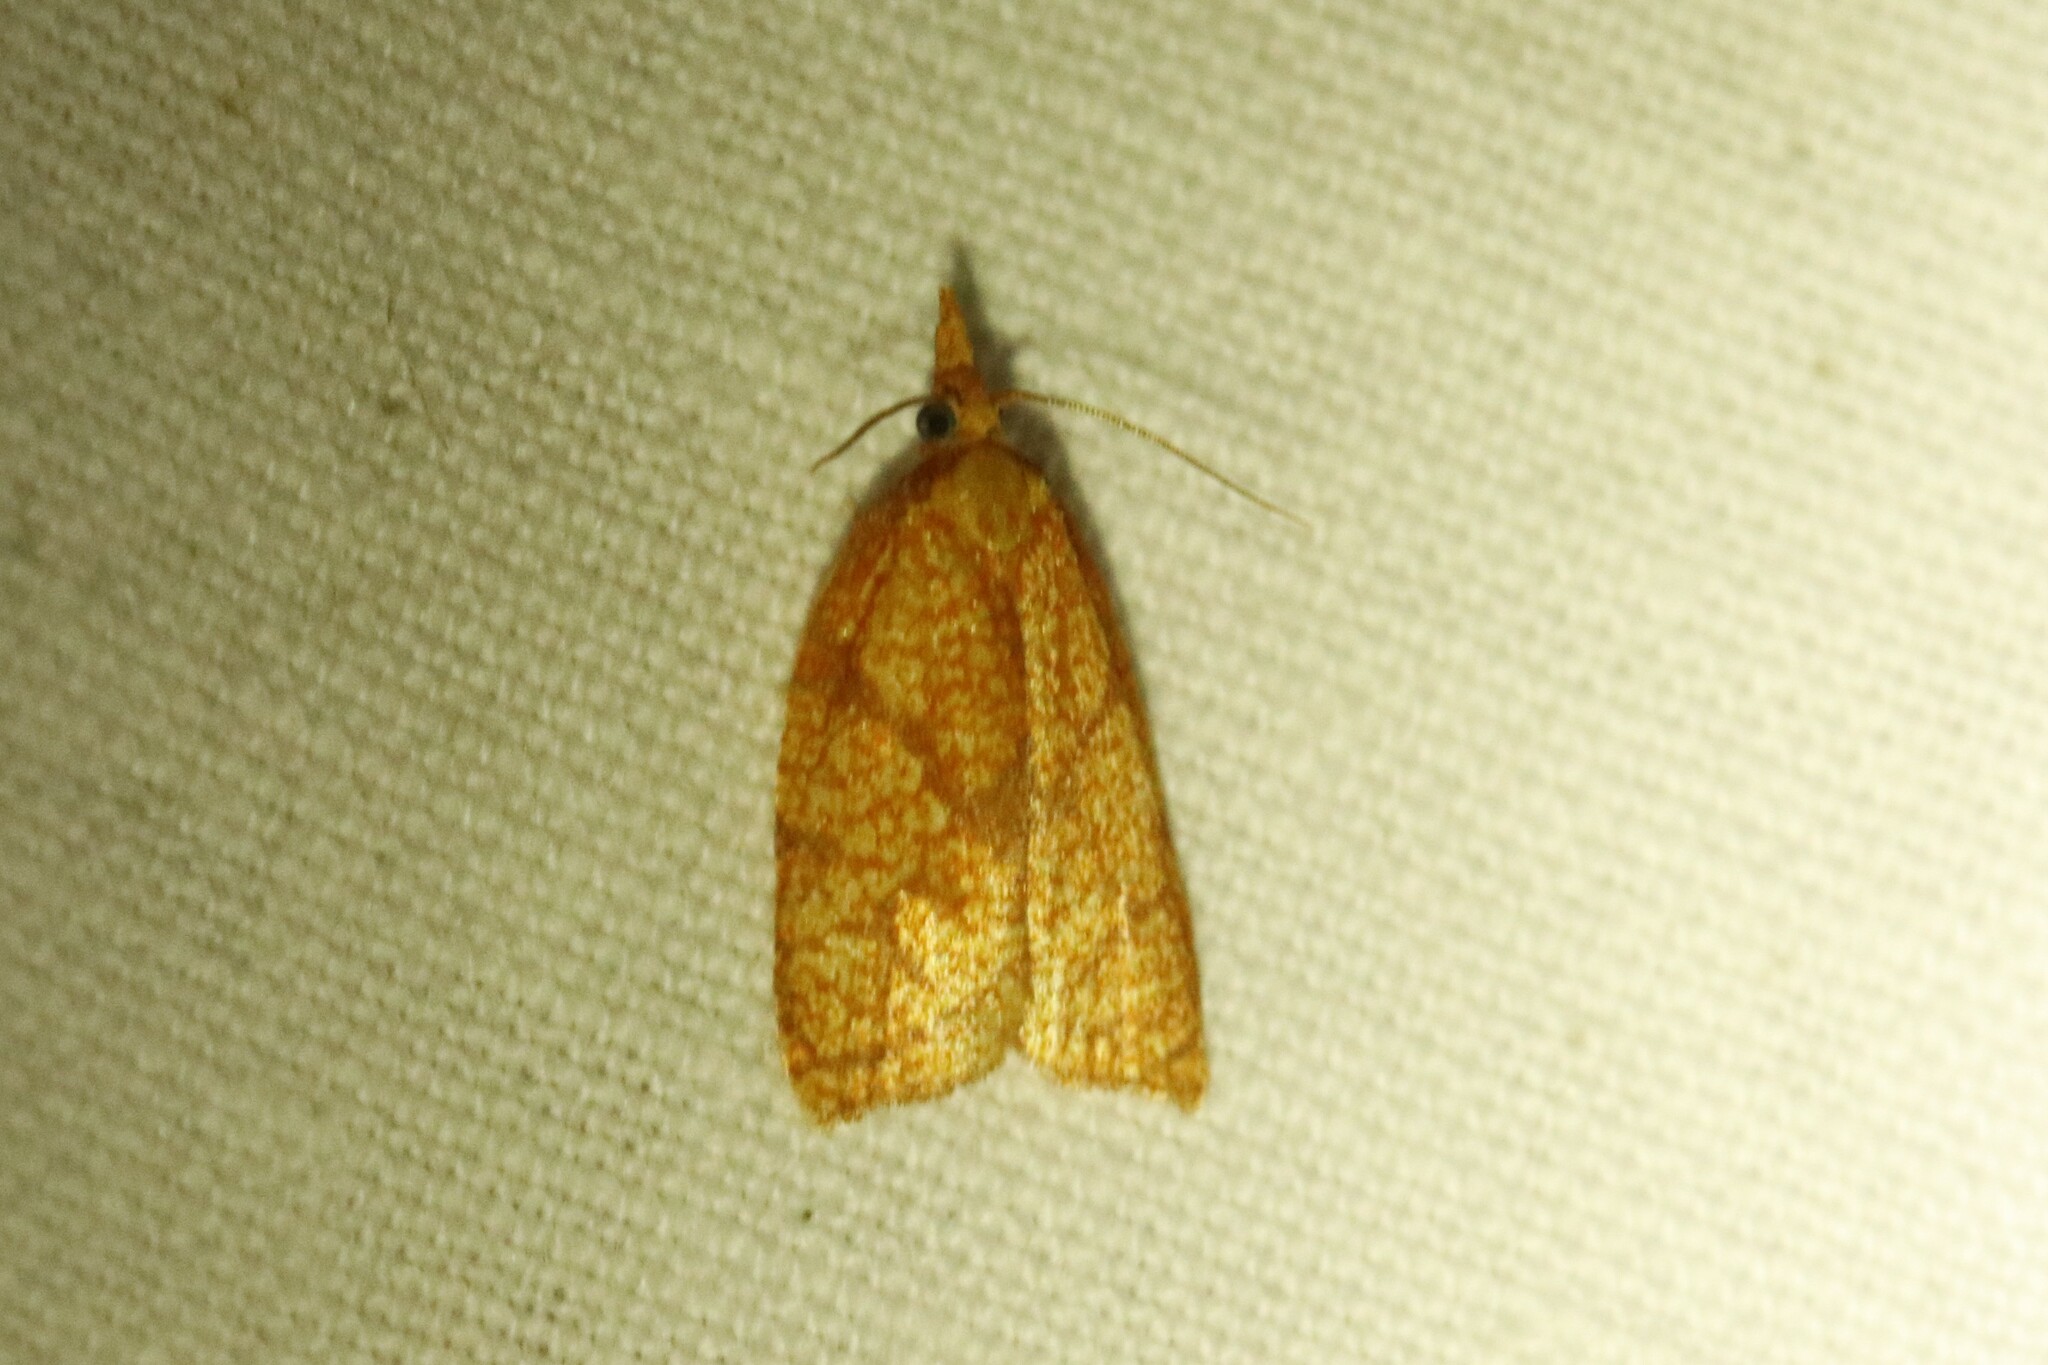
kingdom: Animalia
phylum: Arthropoda
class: Insecta
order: Lepidoptera
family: Tortricidae
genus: Cenopis
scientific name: Cenopis reticulatana
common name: Reticulated fruitworm moth
